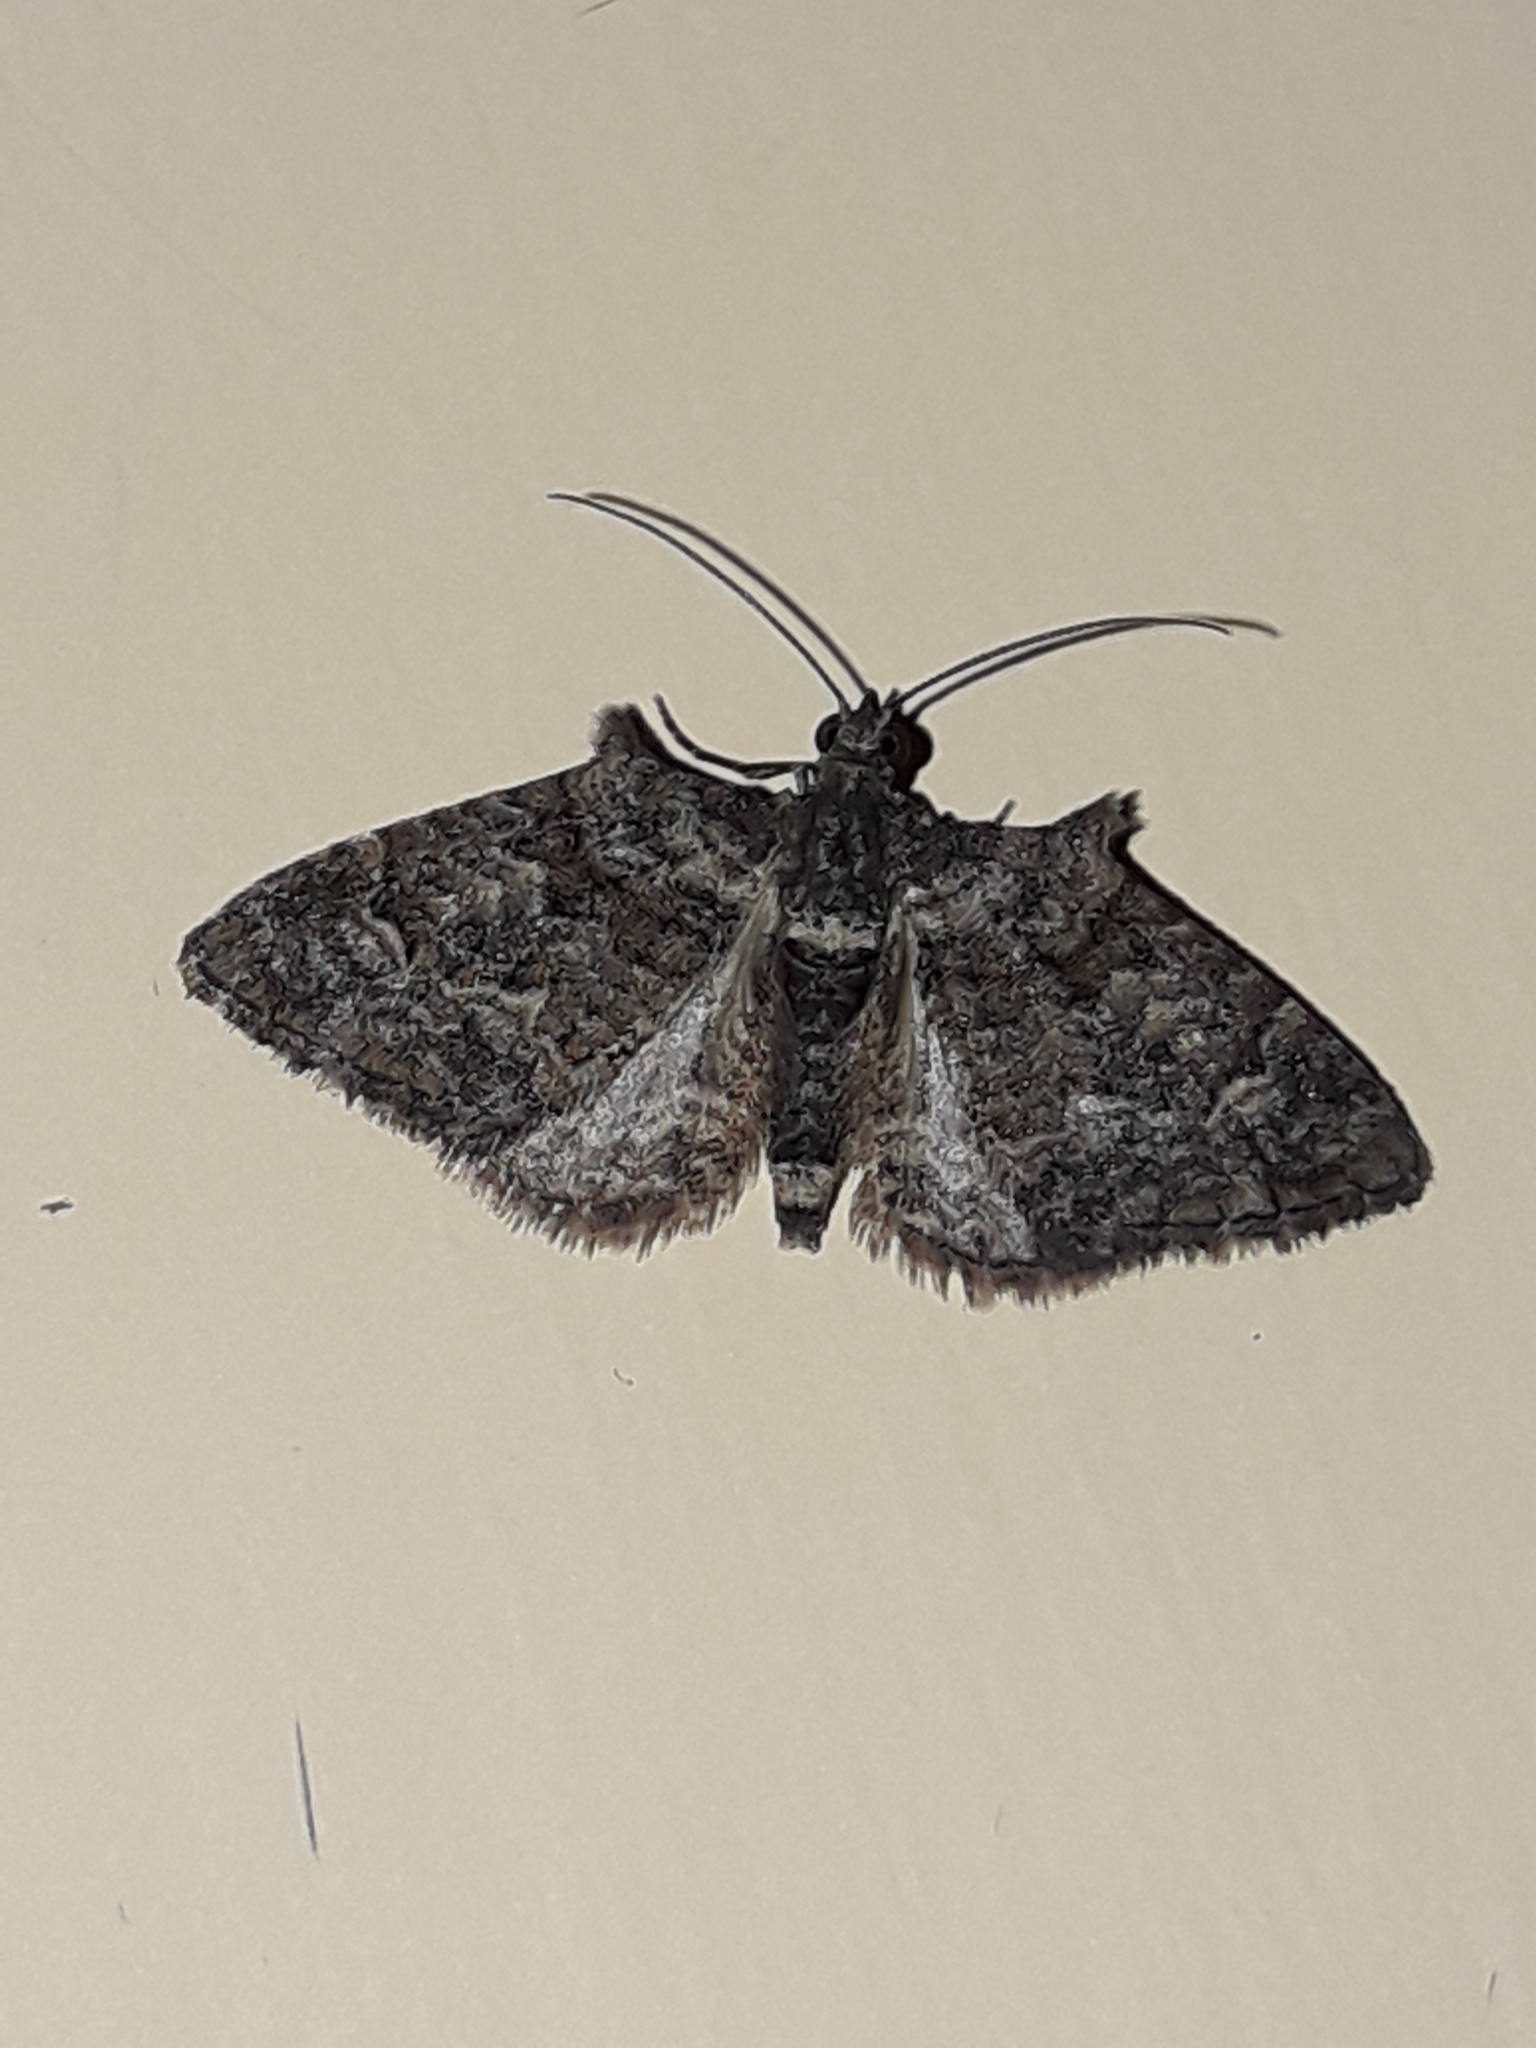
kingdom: Animalia
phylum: Arthropoda
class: Insecta
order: Lepidoptera
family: Geometridae
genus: Phrissogonus
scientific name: Phrissogonus laticostata
